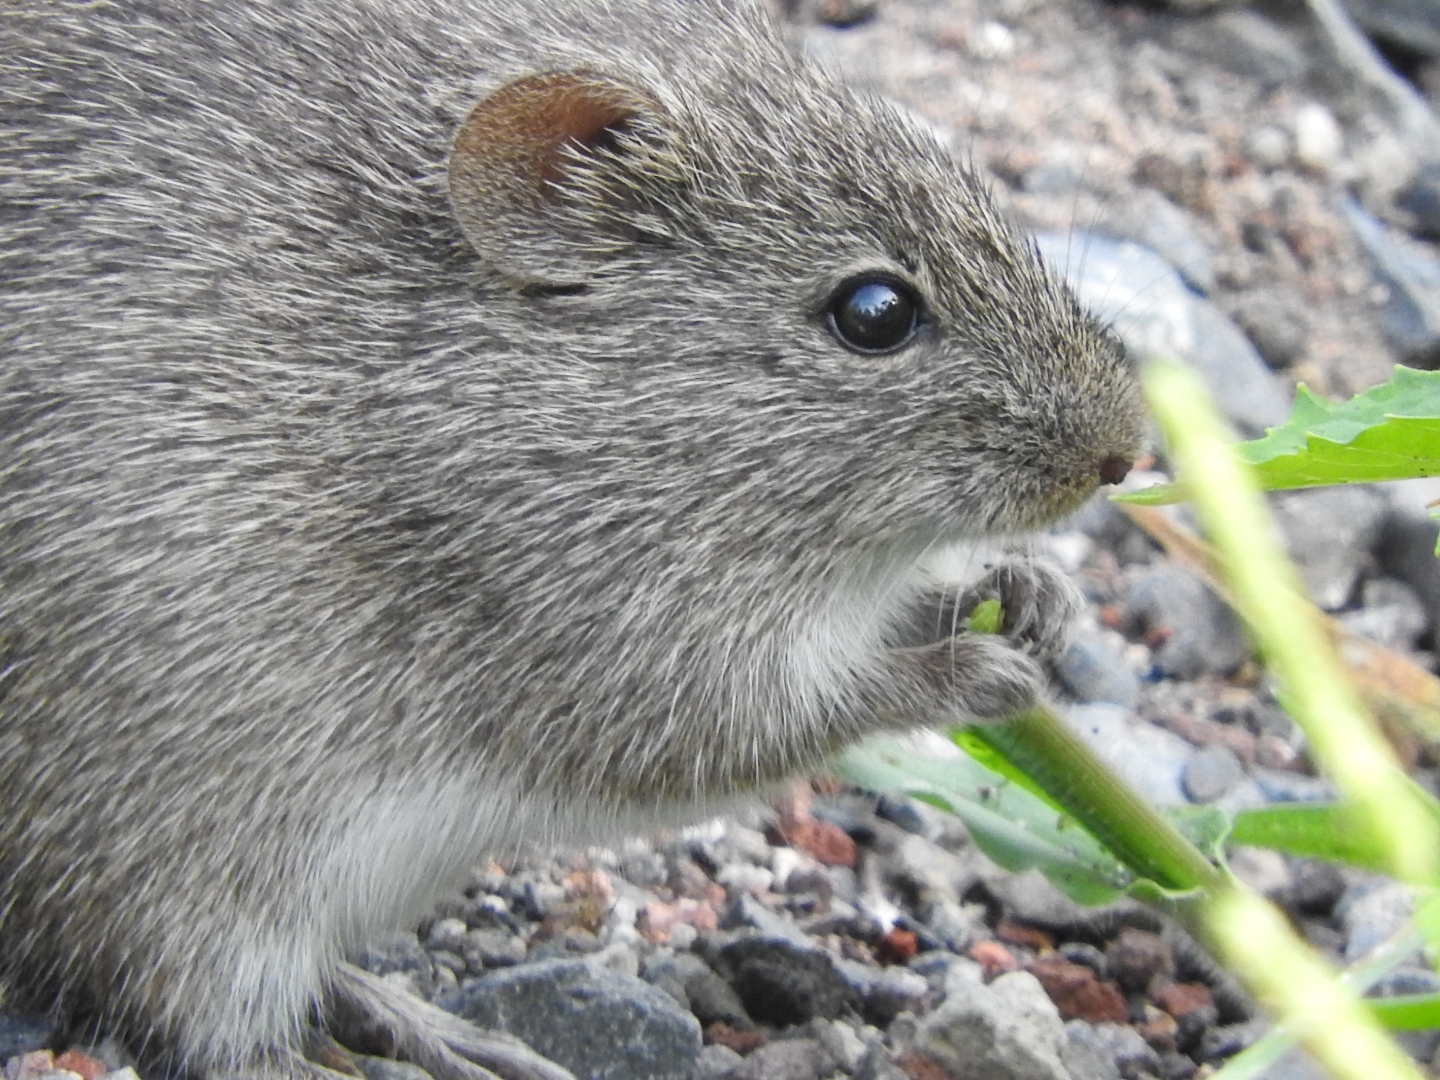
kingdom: Animalia
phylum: Chordata
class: Mammalia
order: Rodentia
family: Cricetidae
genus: Sigmodon
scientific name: Sigmodon leucotis
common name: White-eared cotton rat
